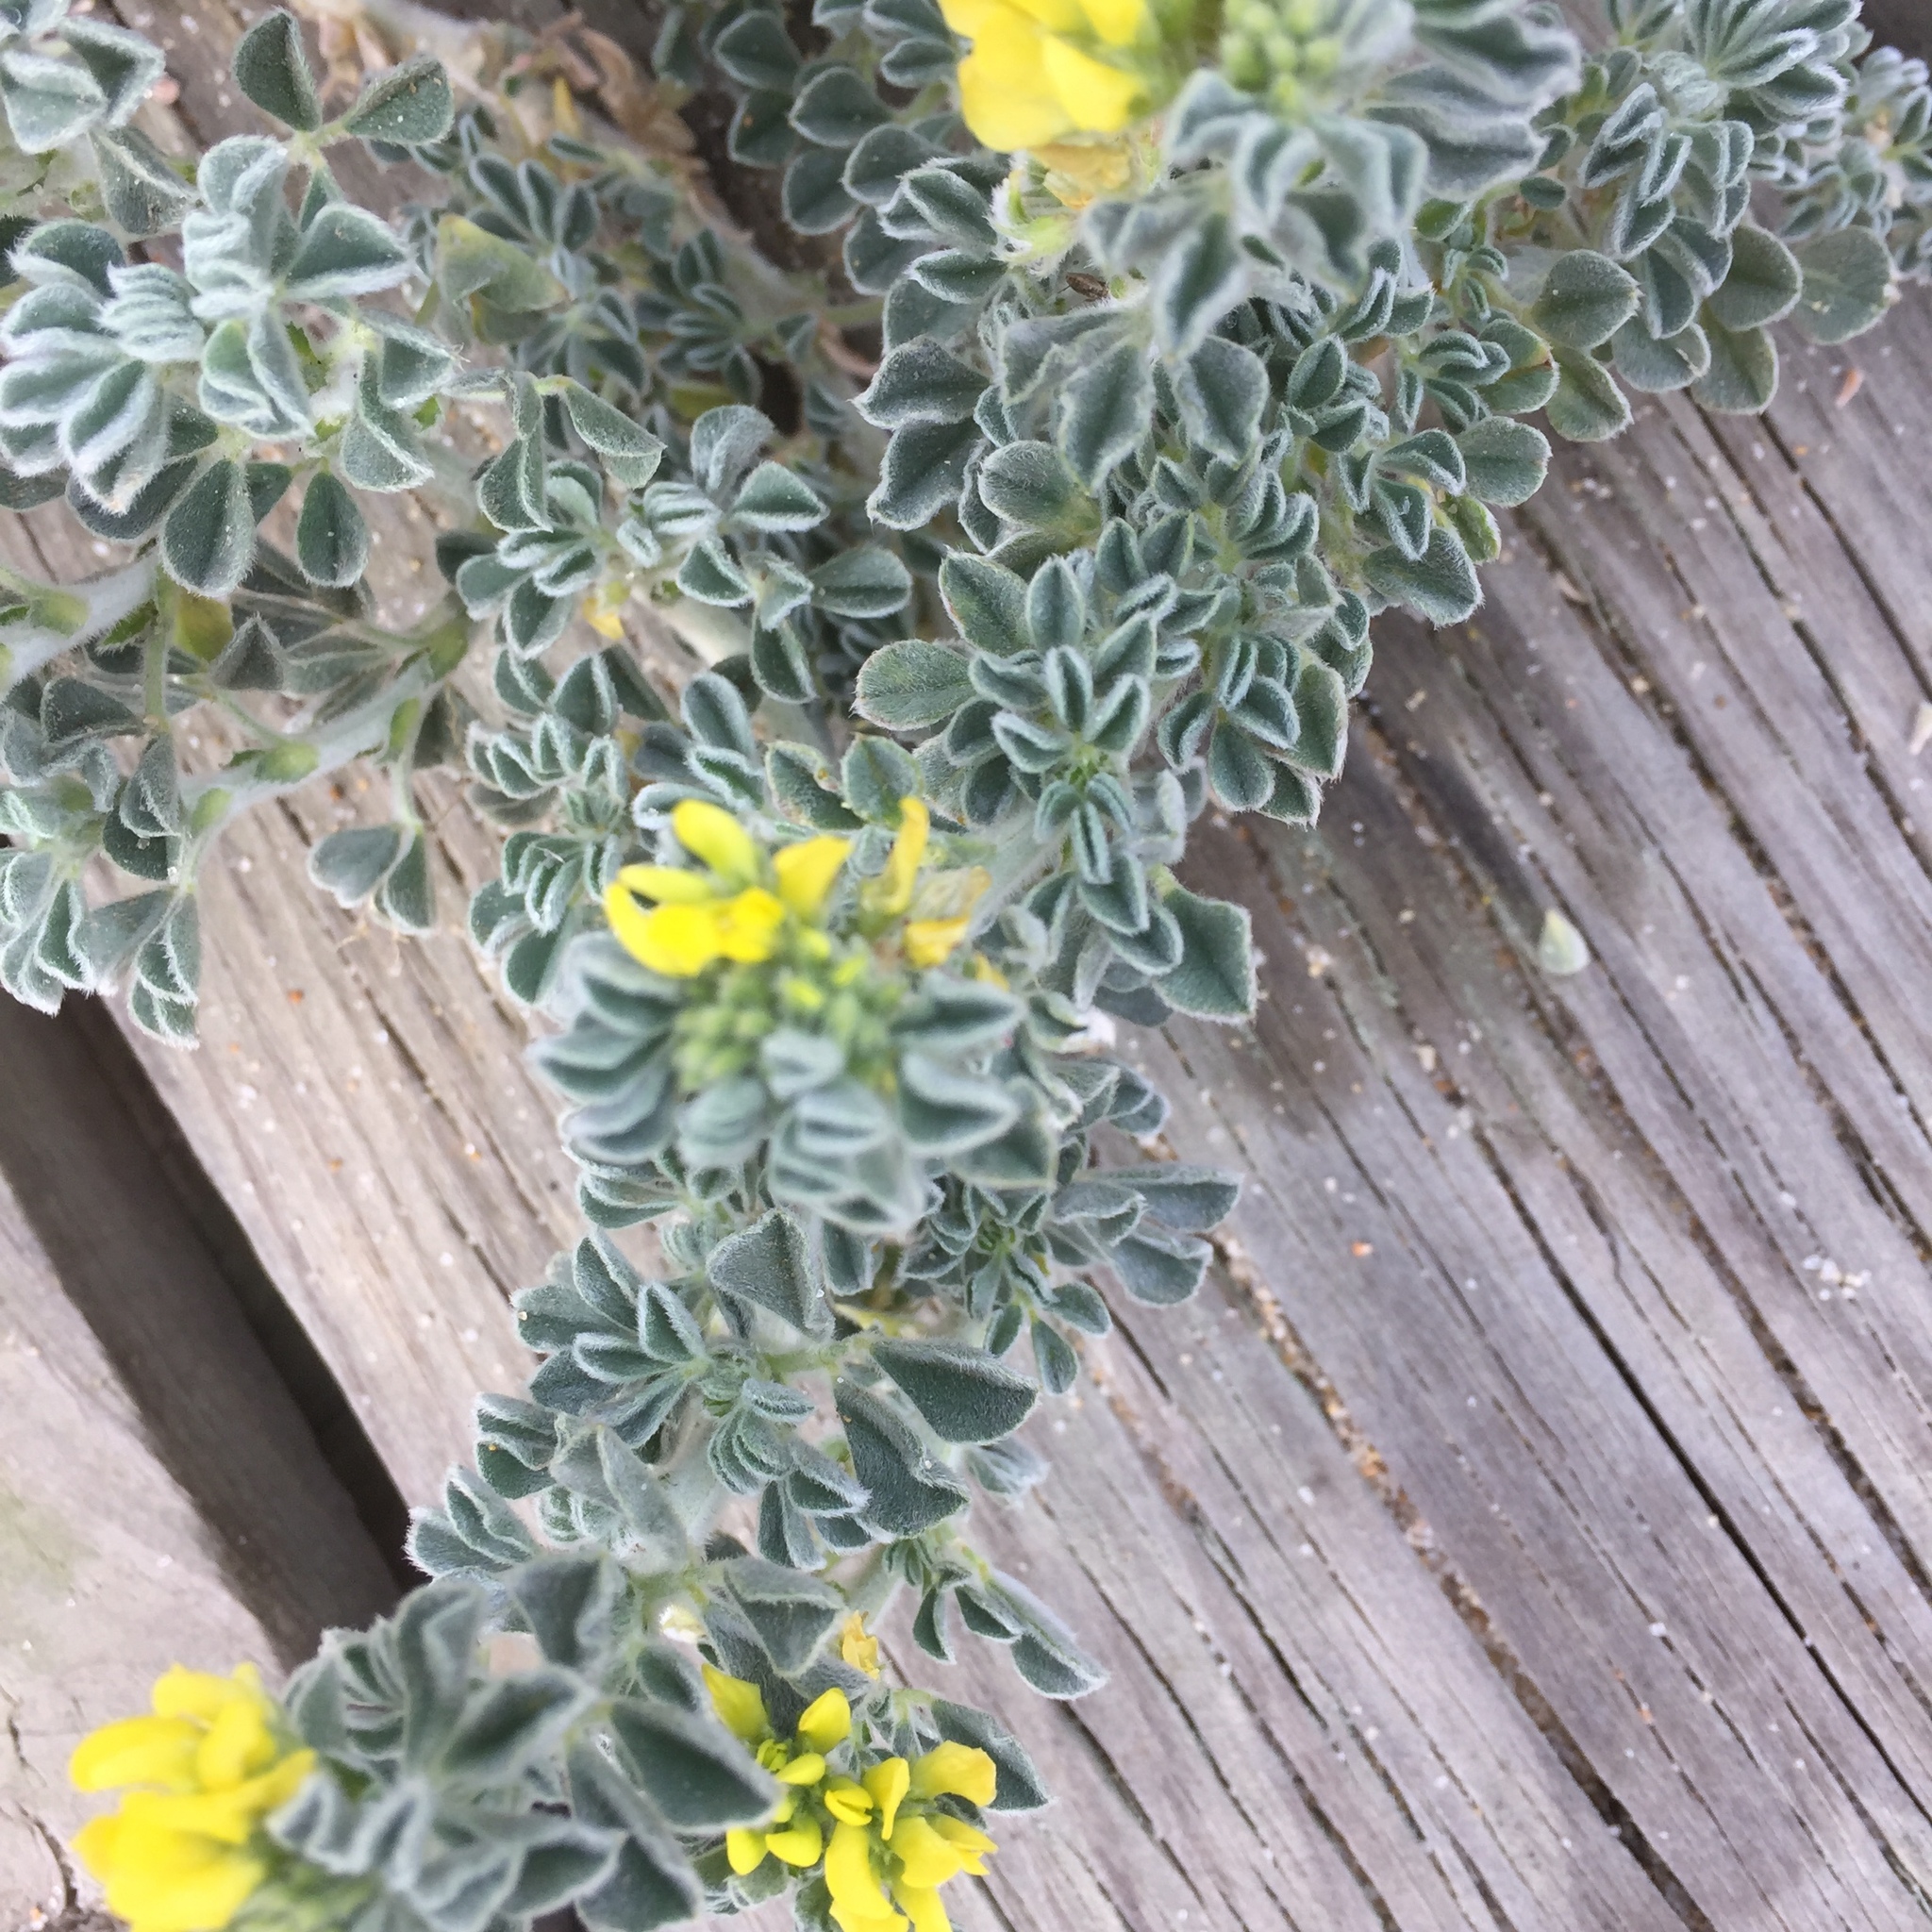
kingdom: Plantae
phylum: Tracheophyta
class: Magnoliopsida
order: Fabales
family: Fabaceae
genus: Medicago
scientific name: Medicago marina
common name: Sea medick
